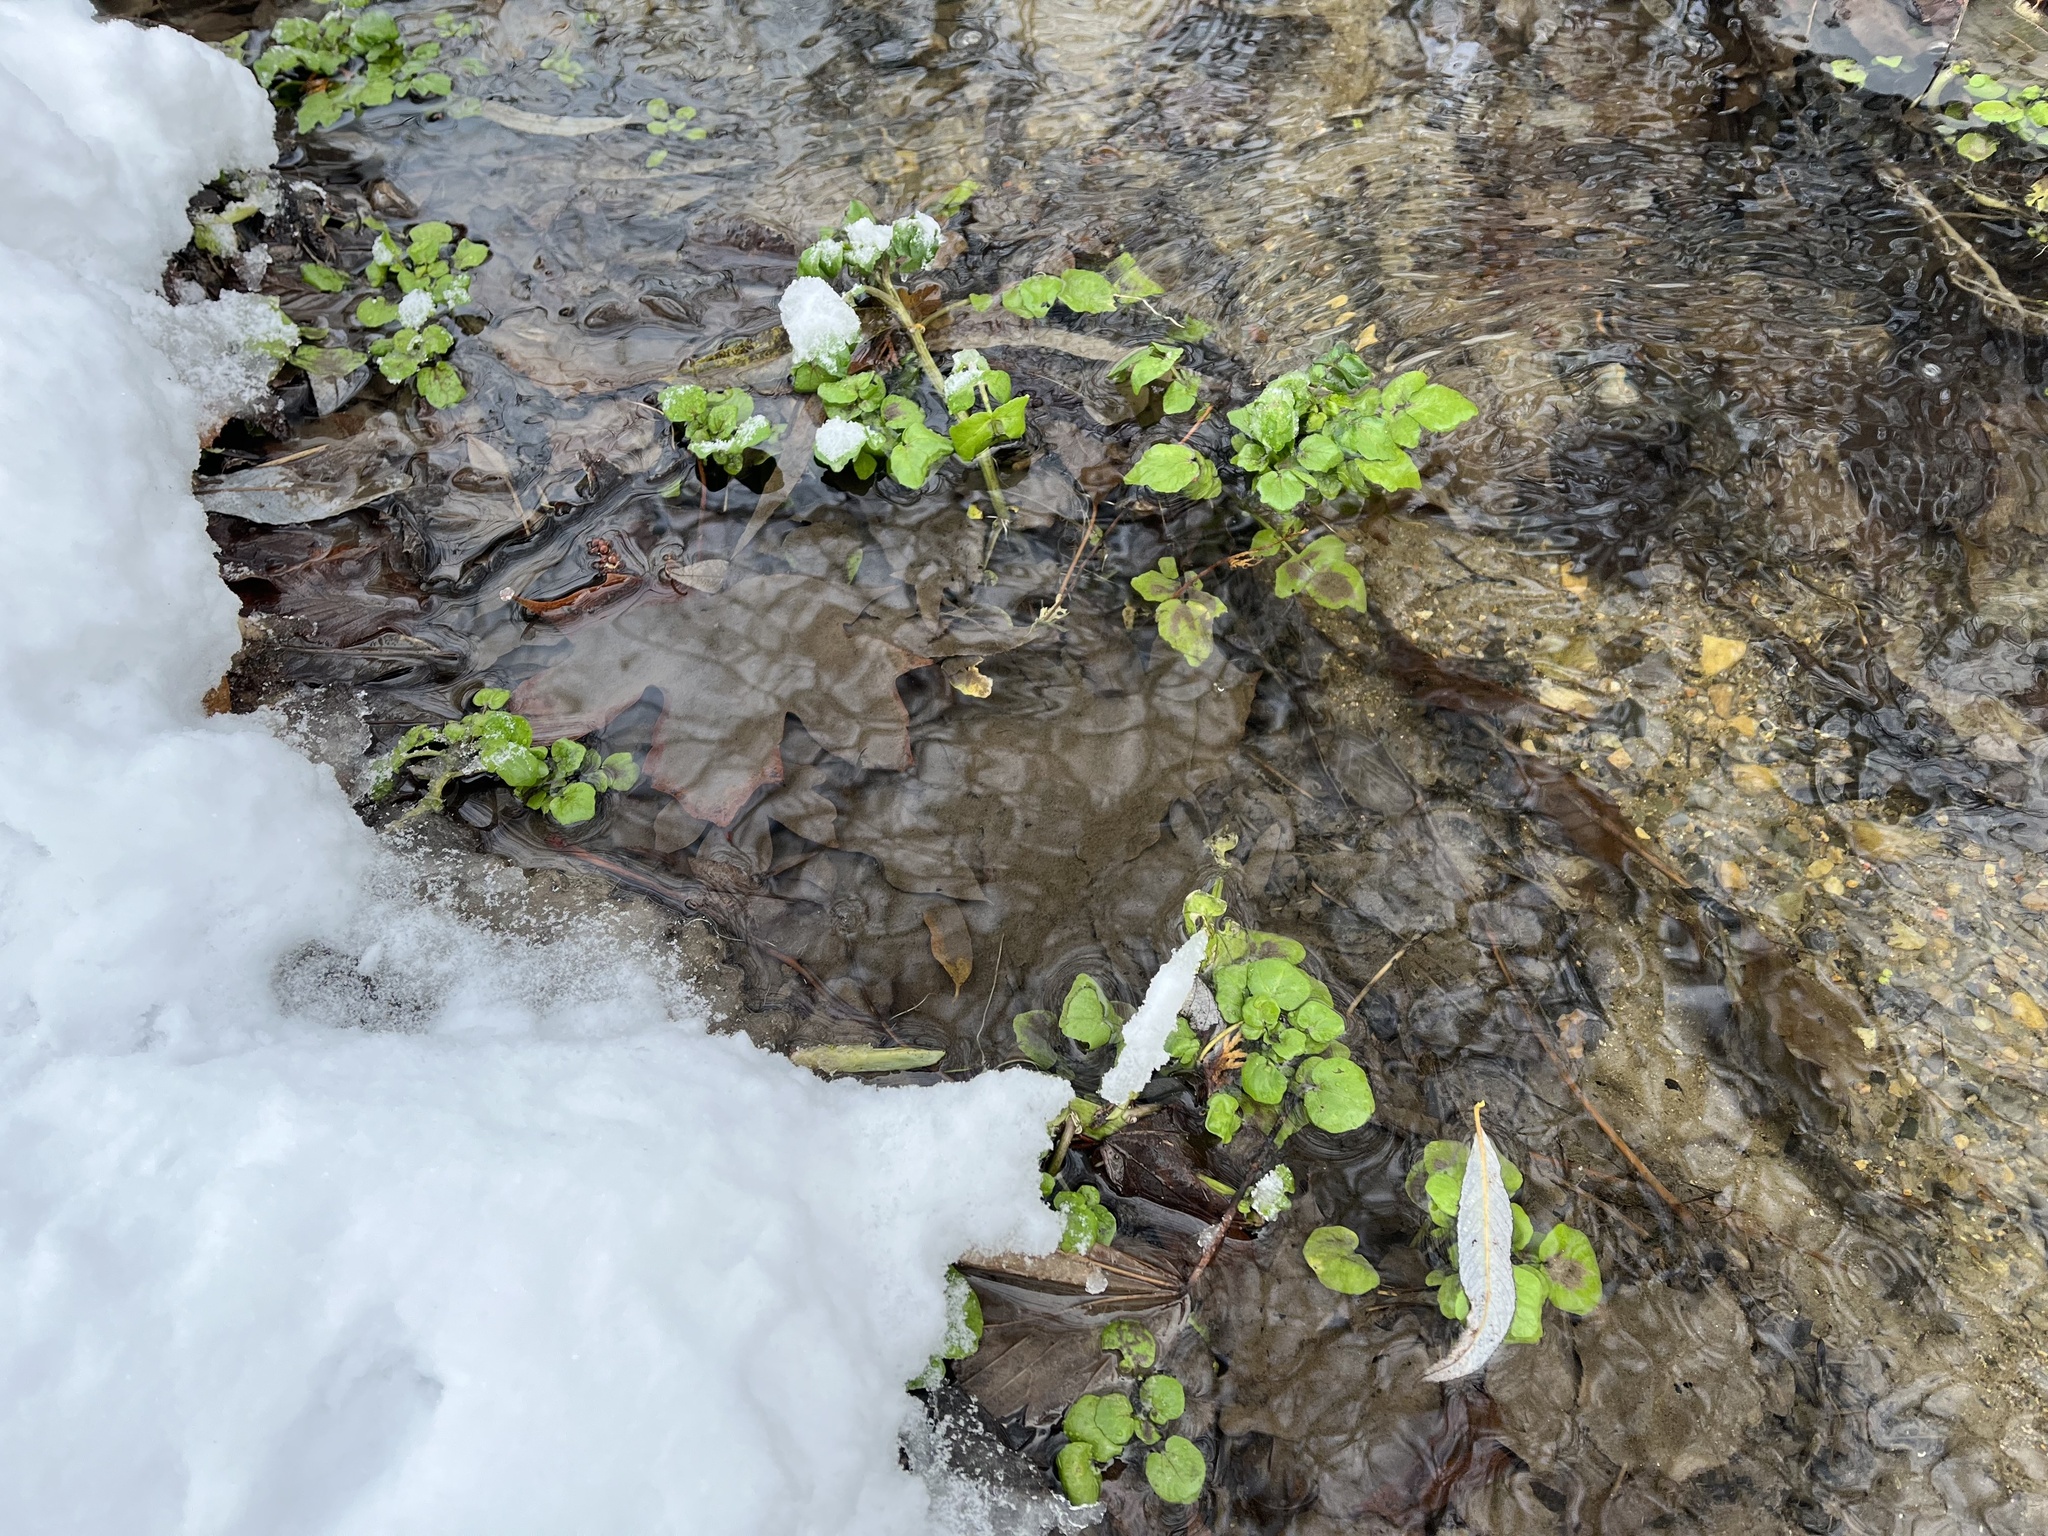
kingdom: Plantae
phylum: Tracheophyta
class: Magnoliopsida
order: Brassicales
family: Brassicaceae
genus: Nasturtium
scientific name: Nasturtium officinale
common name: Watercress
